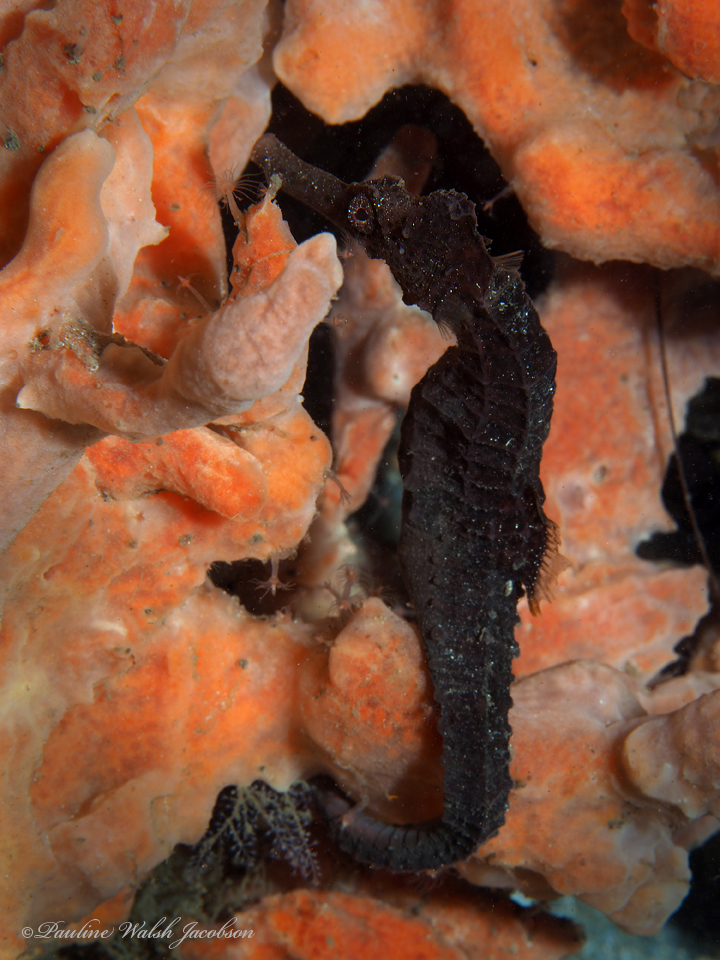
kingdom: Animalia
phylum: Chordata
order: Syngnathiformes
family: Syngnathidae
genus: Hippocampus
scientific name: Hippocampus reidi
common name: Slender seahorse
